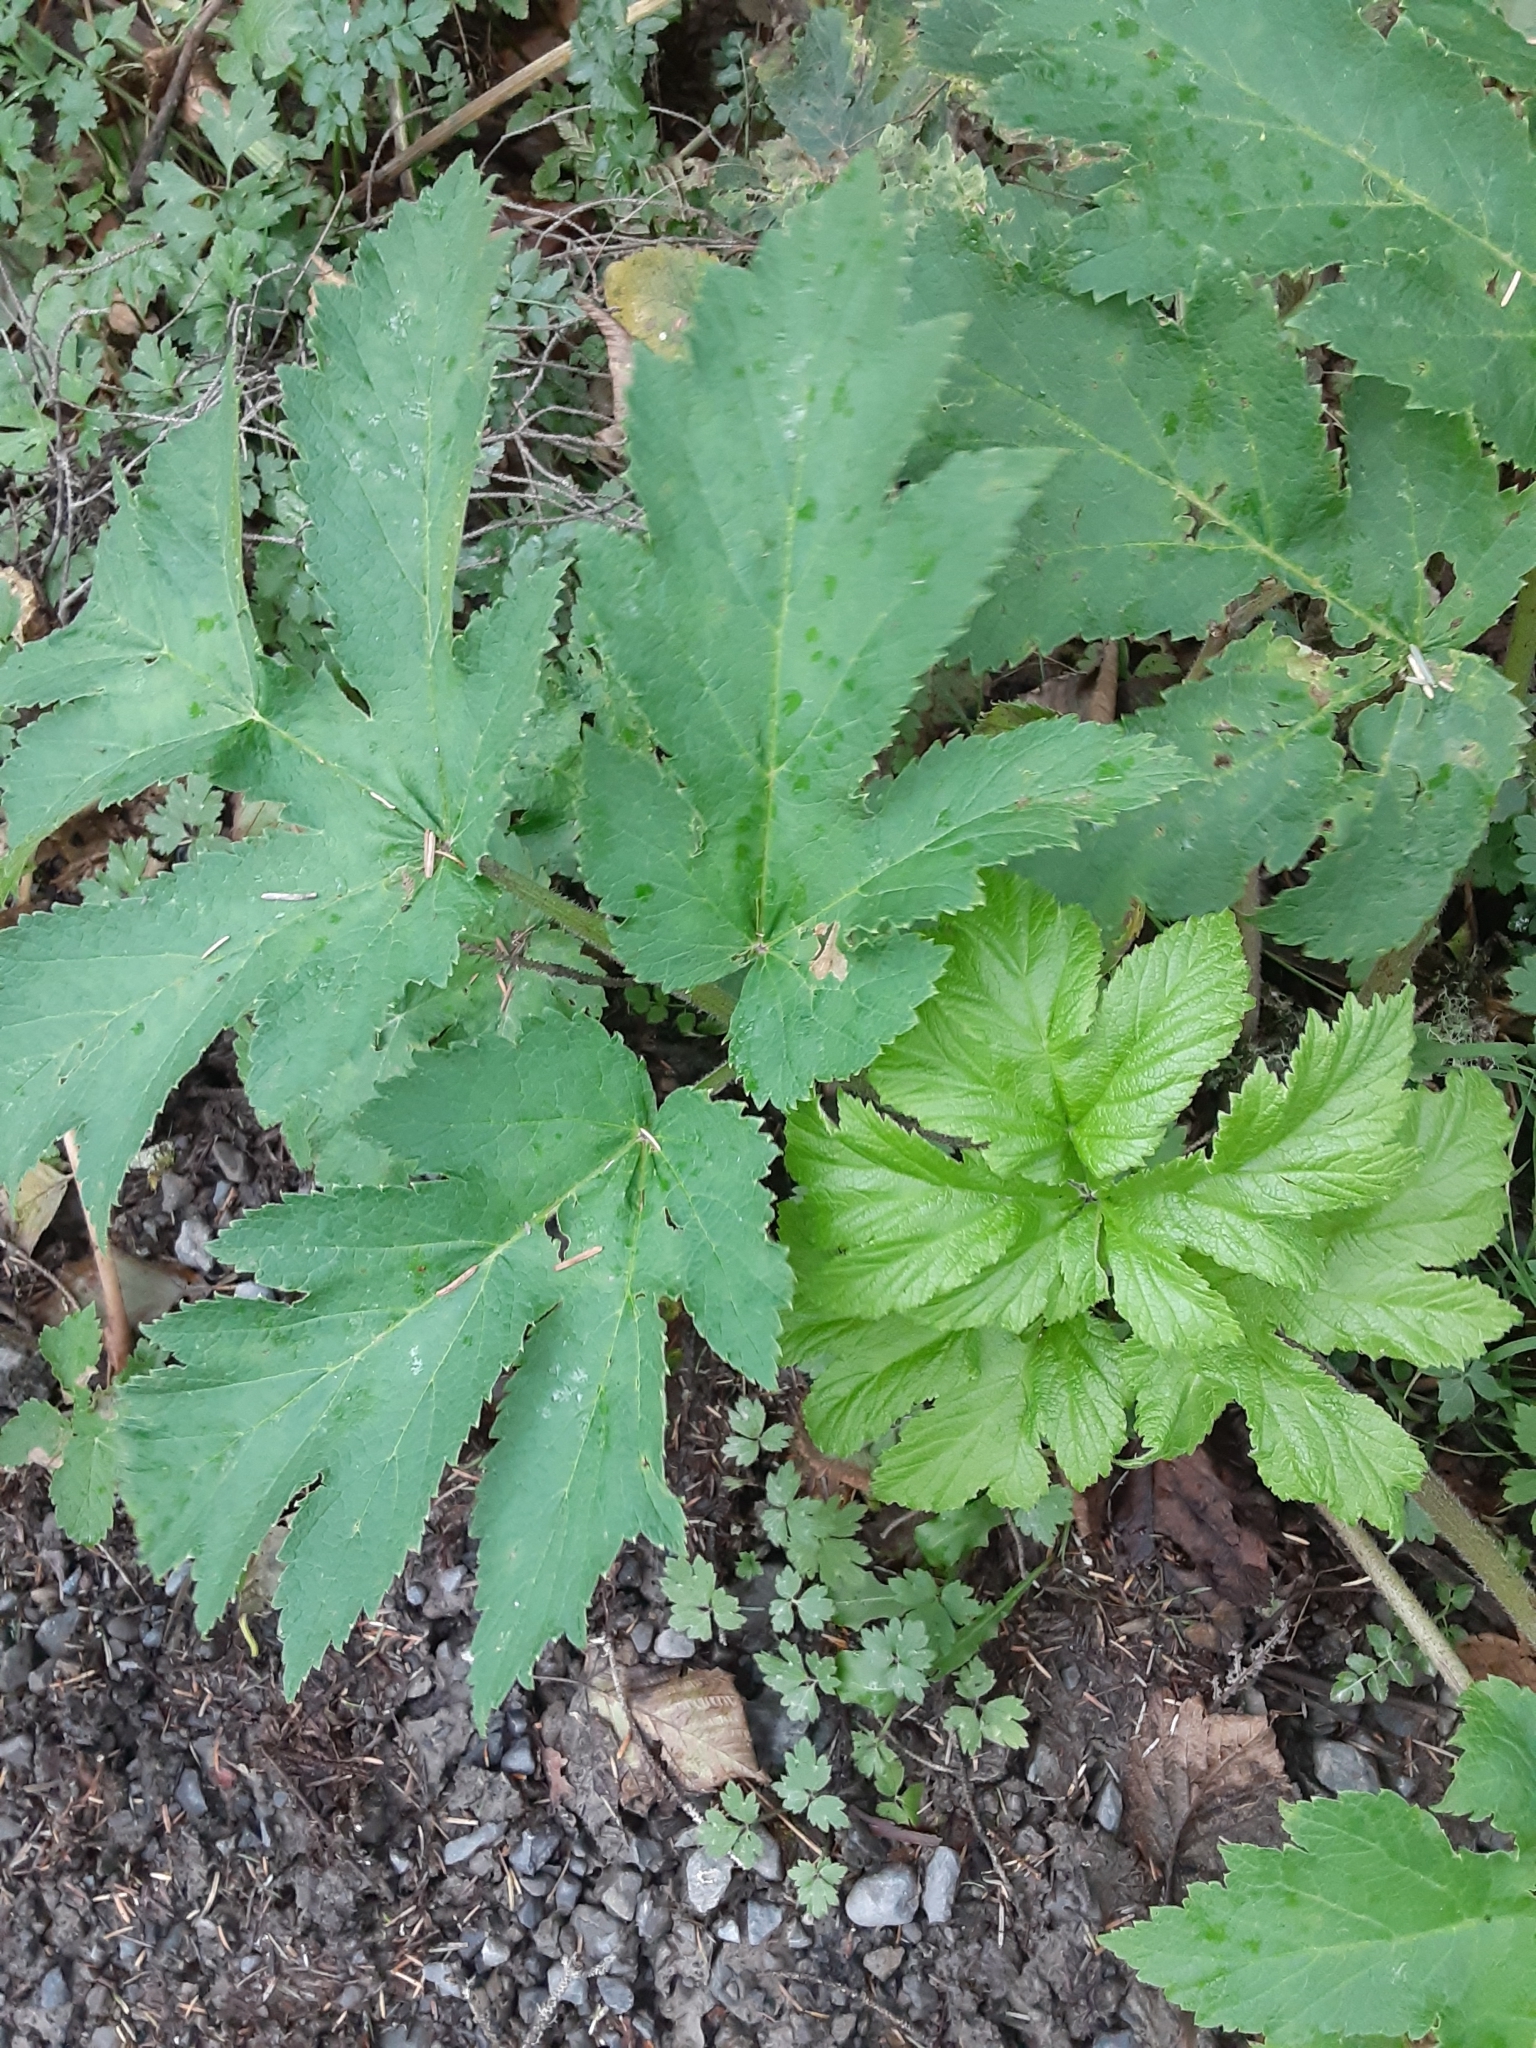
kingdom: Plantae
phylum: Tracheophyta
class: Magnoliopsida
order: Apiales
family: Apiaceae
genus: Heracleum
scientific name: Heracleum maximum
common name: American cow parsnip
